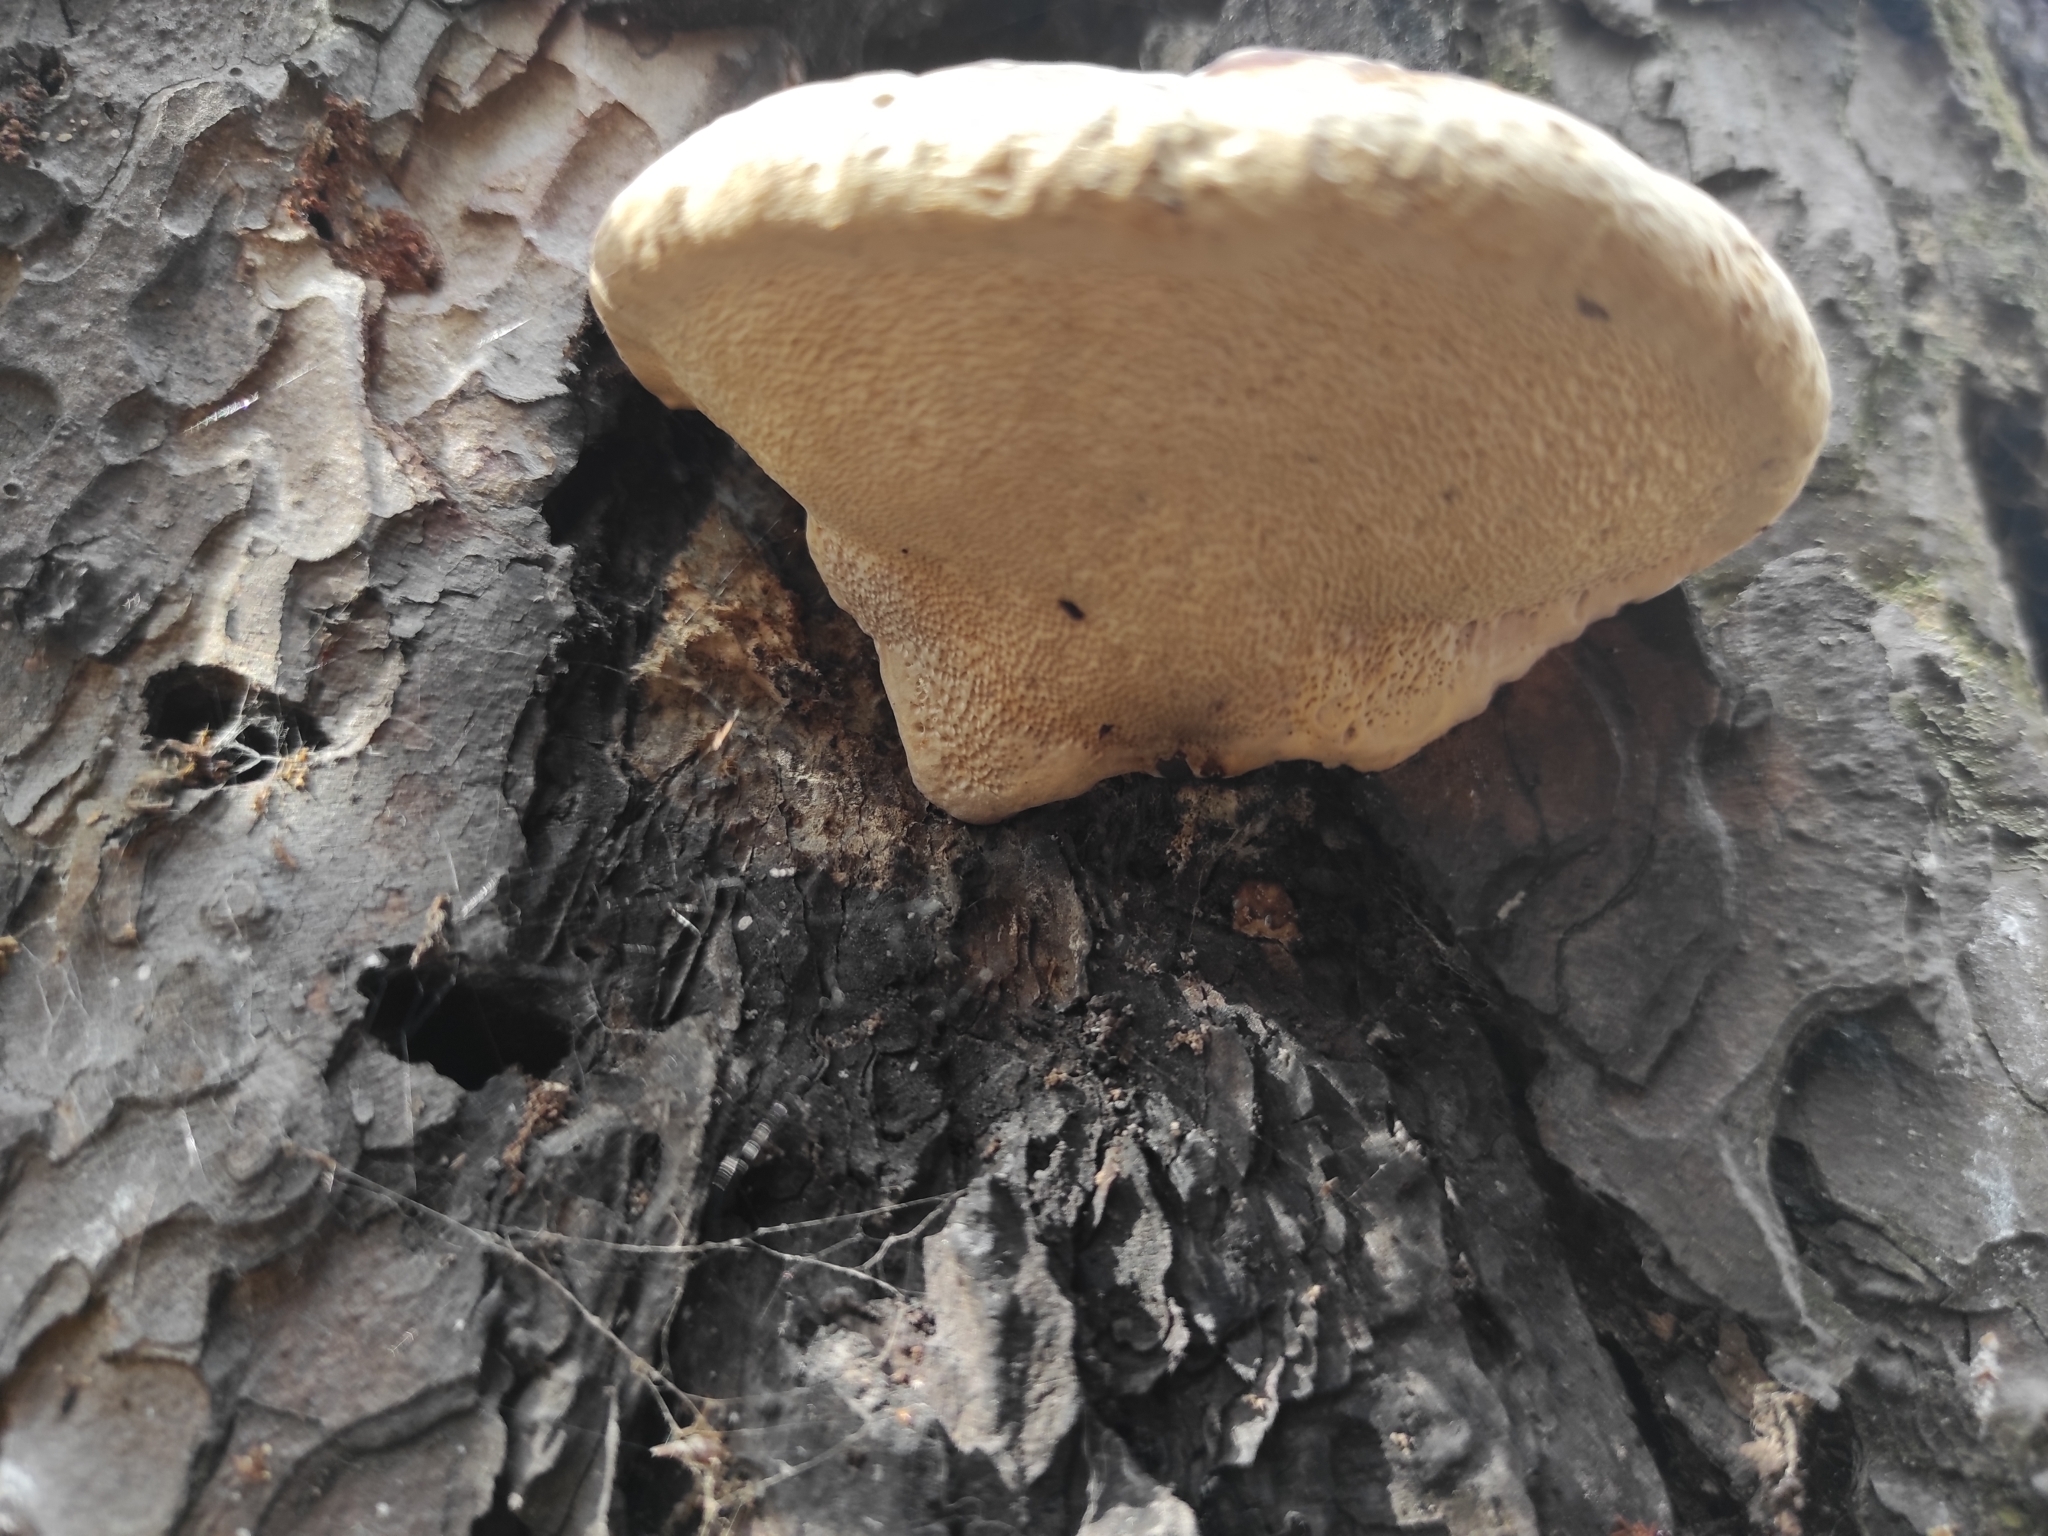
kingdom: Fungi
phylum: Basidiomycota
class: Agaricomycetes
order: Polyporales
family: Fomitopsidaceae
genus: Fomitopsis
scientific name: Fomitopsis pinicola
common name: Red-belted bracket
